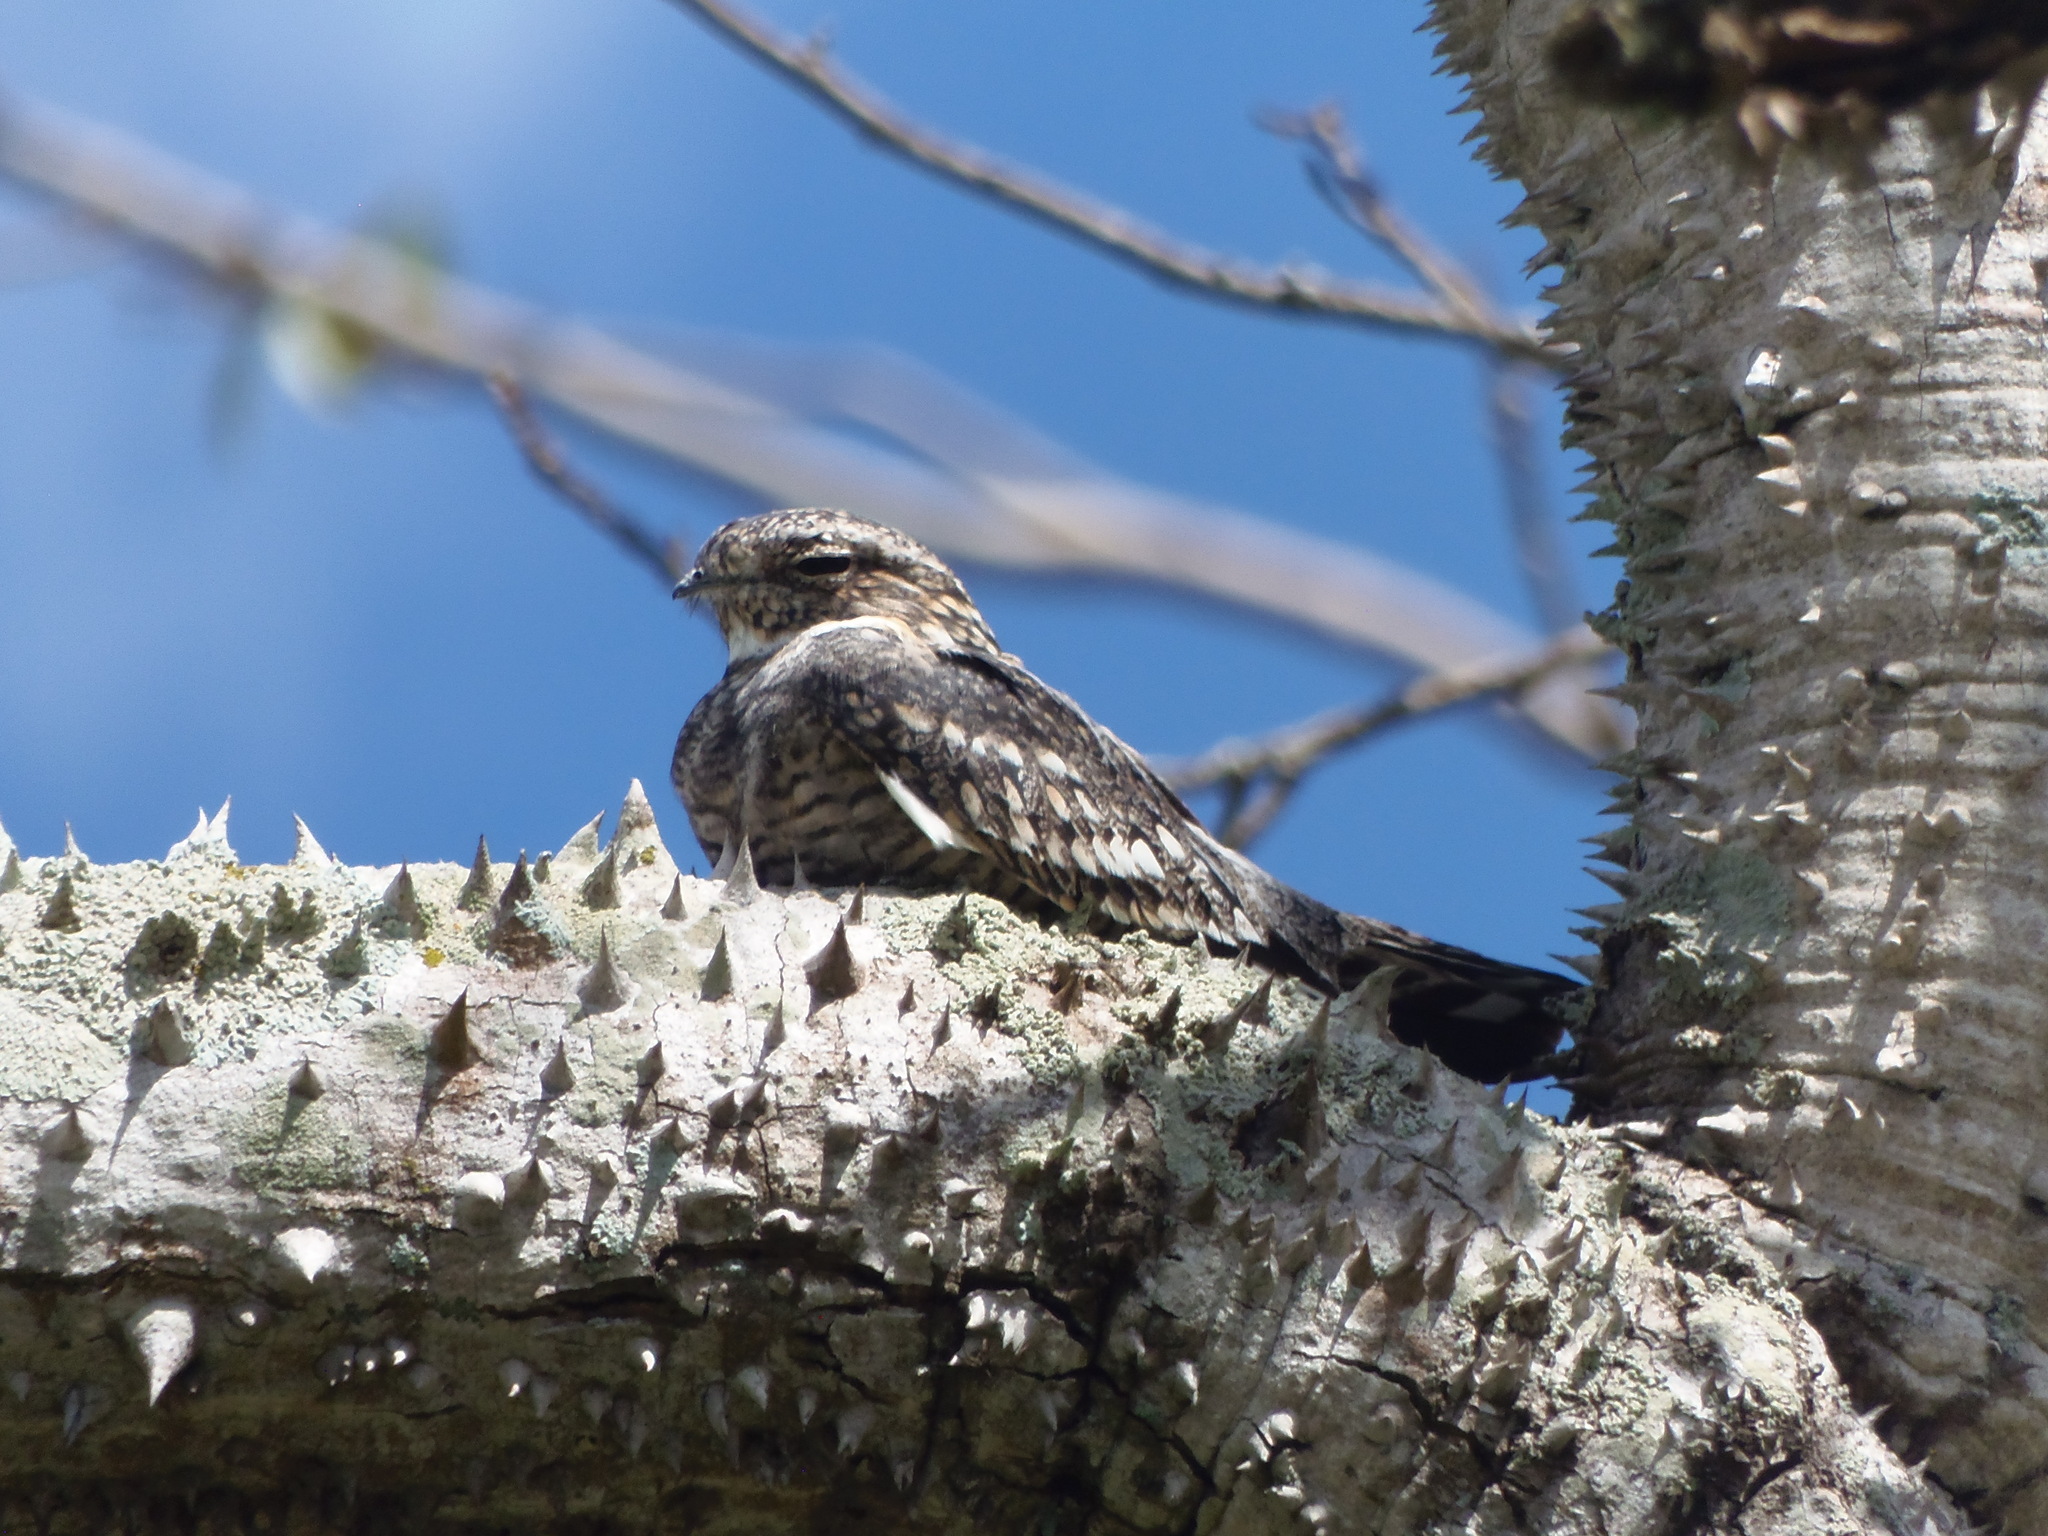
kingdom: Animalia
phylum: Chordata
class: Aves
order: Caprimulgiformes
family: Caprimulgidae
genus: Chordeiles
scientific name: Chordeiles acutipennis
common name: Lesser nighthawk
